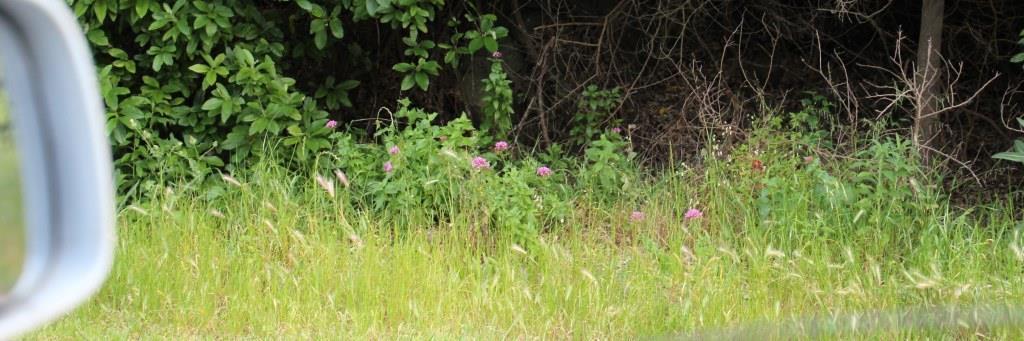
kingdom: Plantae
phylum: Tracheophyta
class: Magnoliopsida
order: Dipsacales
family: Caprifoliaceae
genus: Centranthus
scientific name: Centranthus ruber
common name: Red valerian
